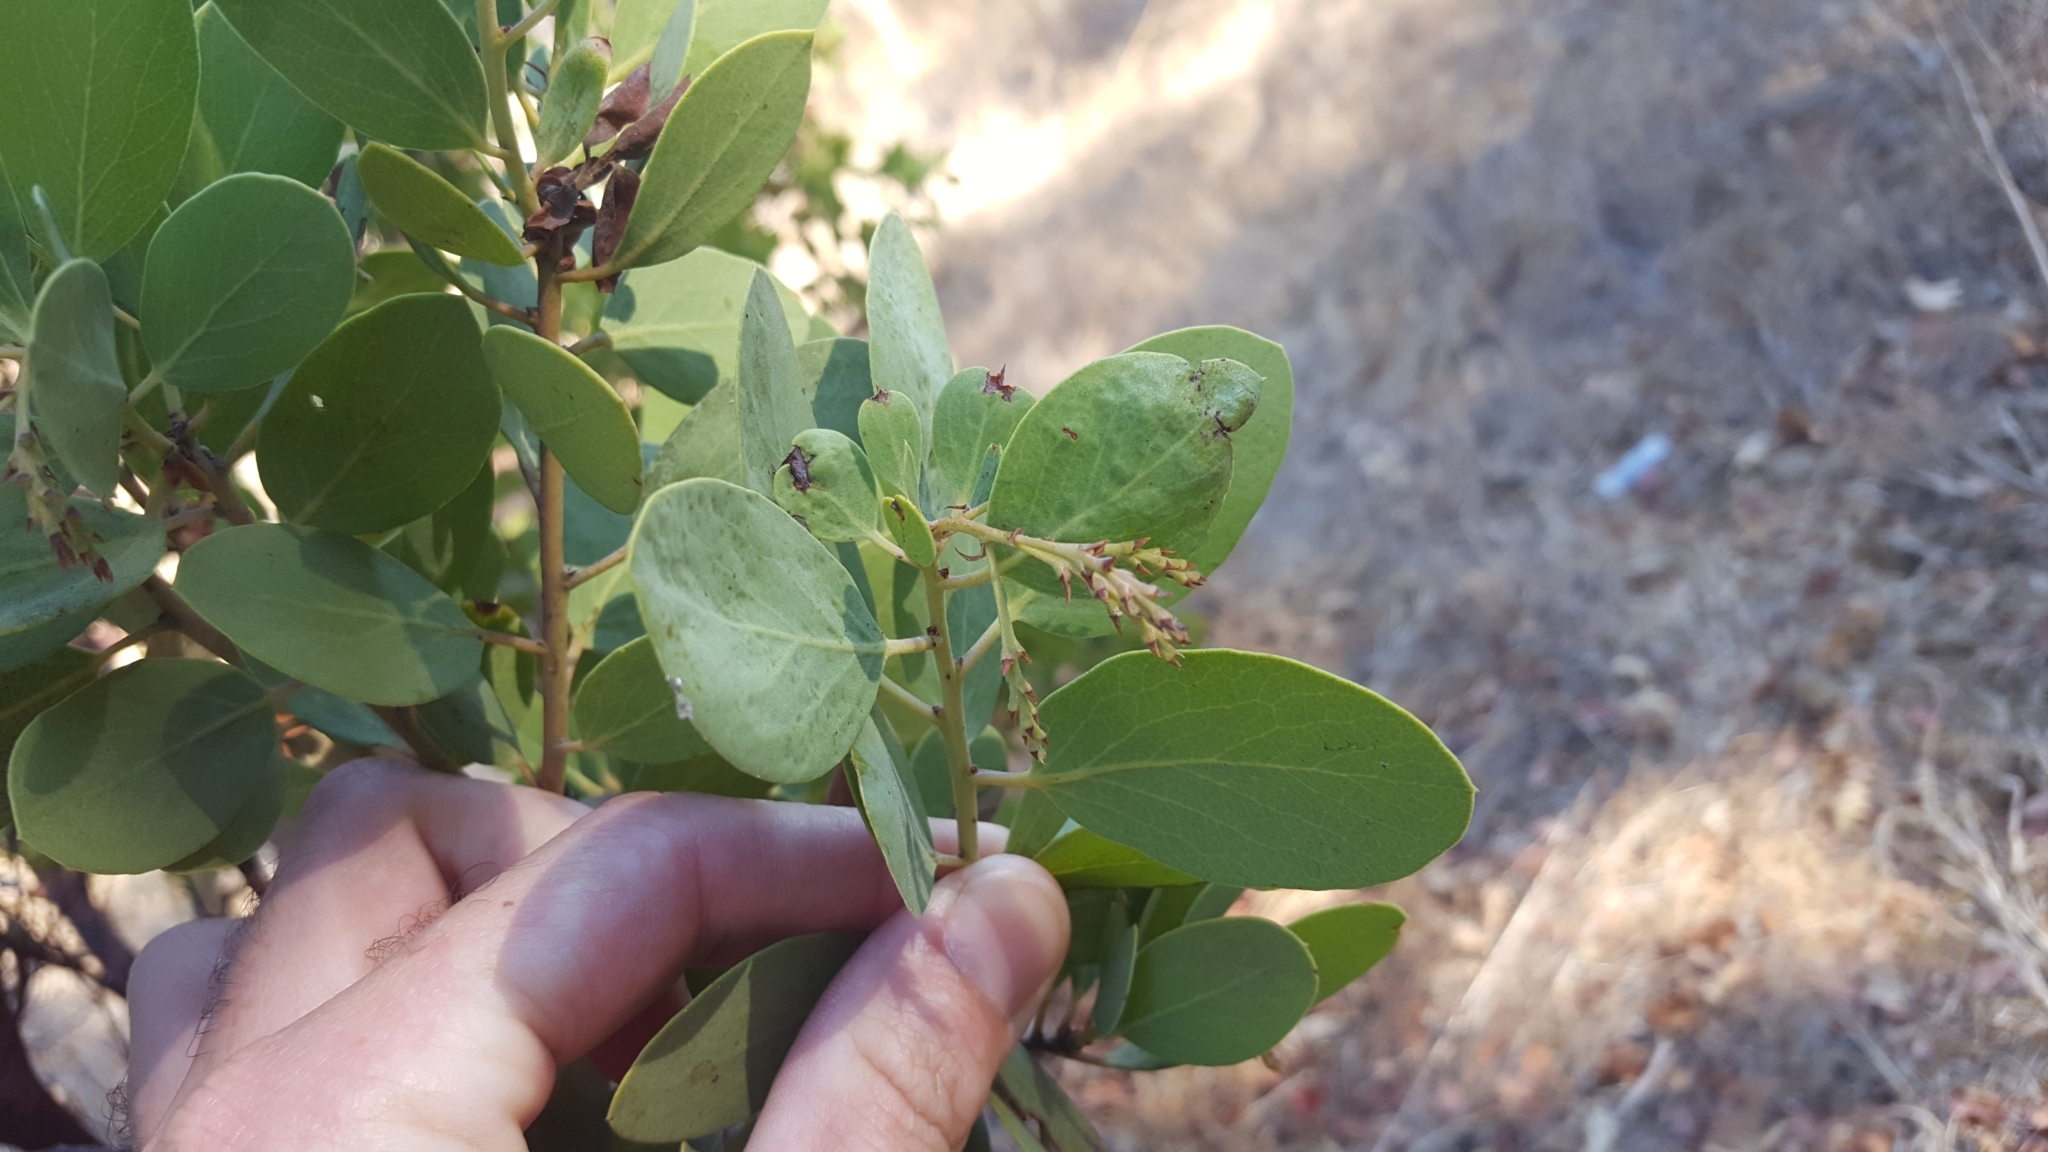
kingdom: Plantae
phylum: Tracheophyta
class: Magnoliopsida
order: Ericales
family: Ericaceae
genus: Arctostaphylos
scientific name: Arctostaphylos manzanita
